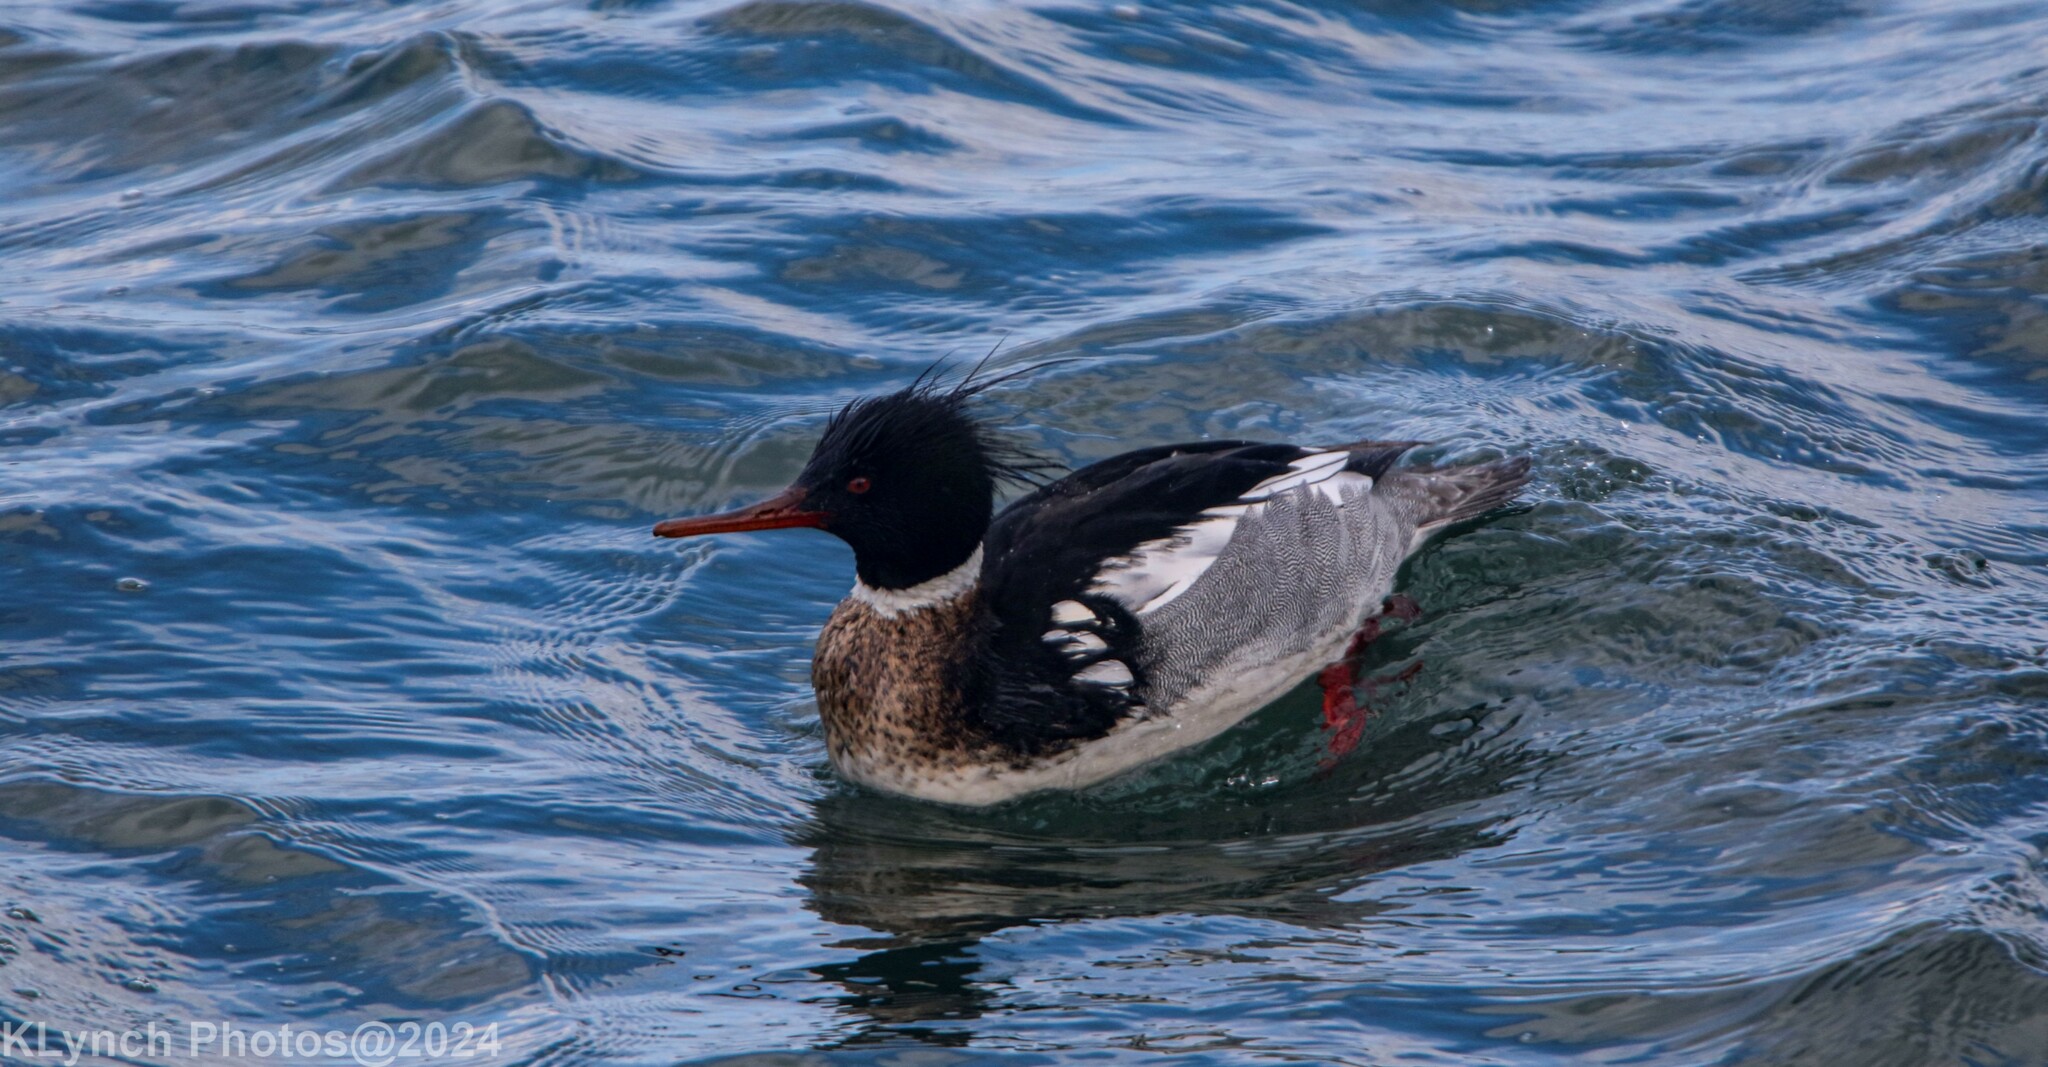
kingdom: Animalia
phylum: Chordata
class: Aves
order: Anseriformes
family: Anatidae
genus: Mergus
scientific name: Mergus serrator
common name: Red-breasted merganser
